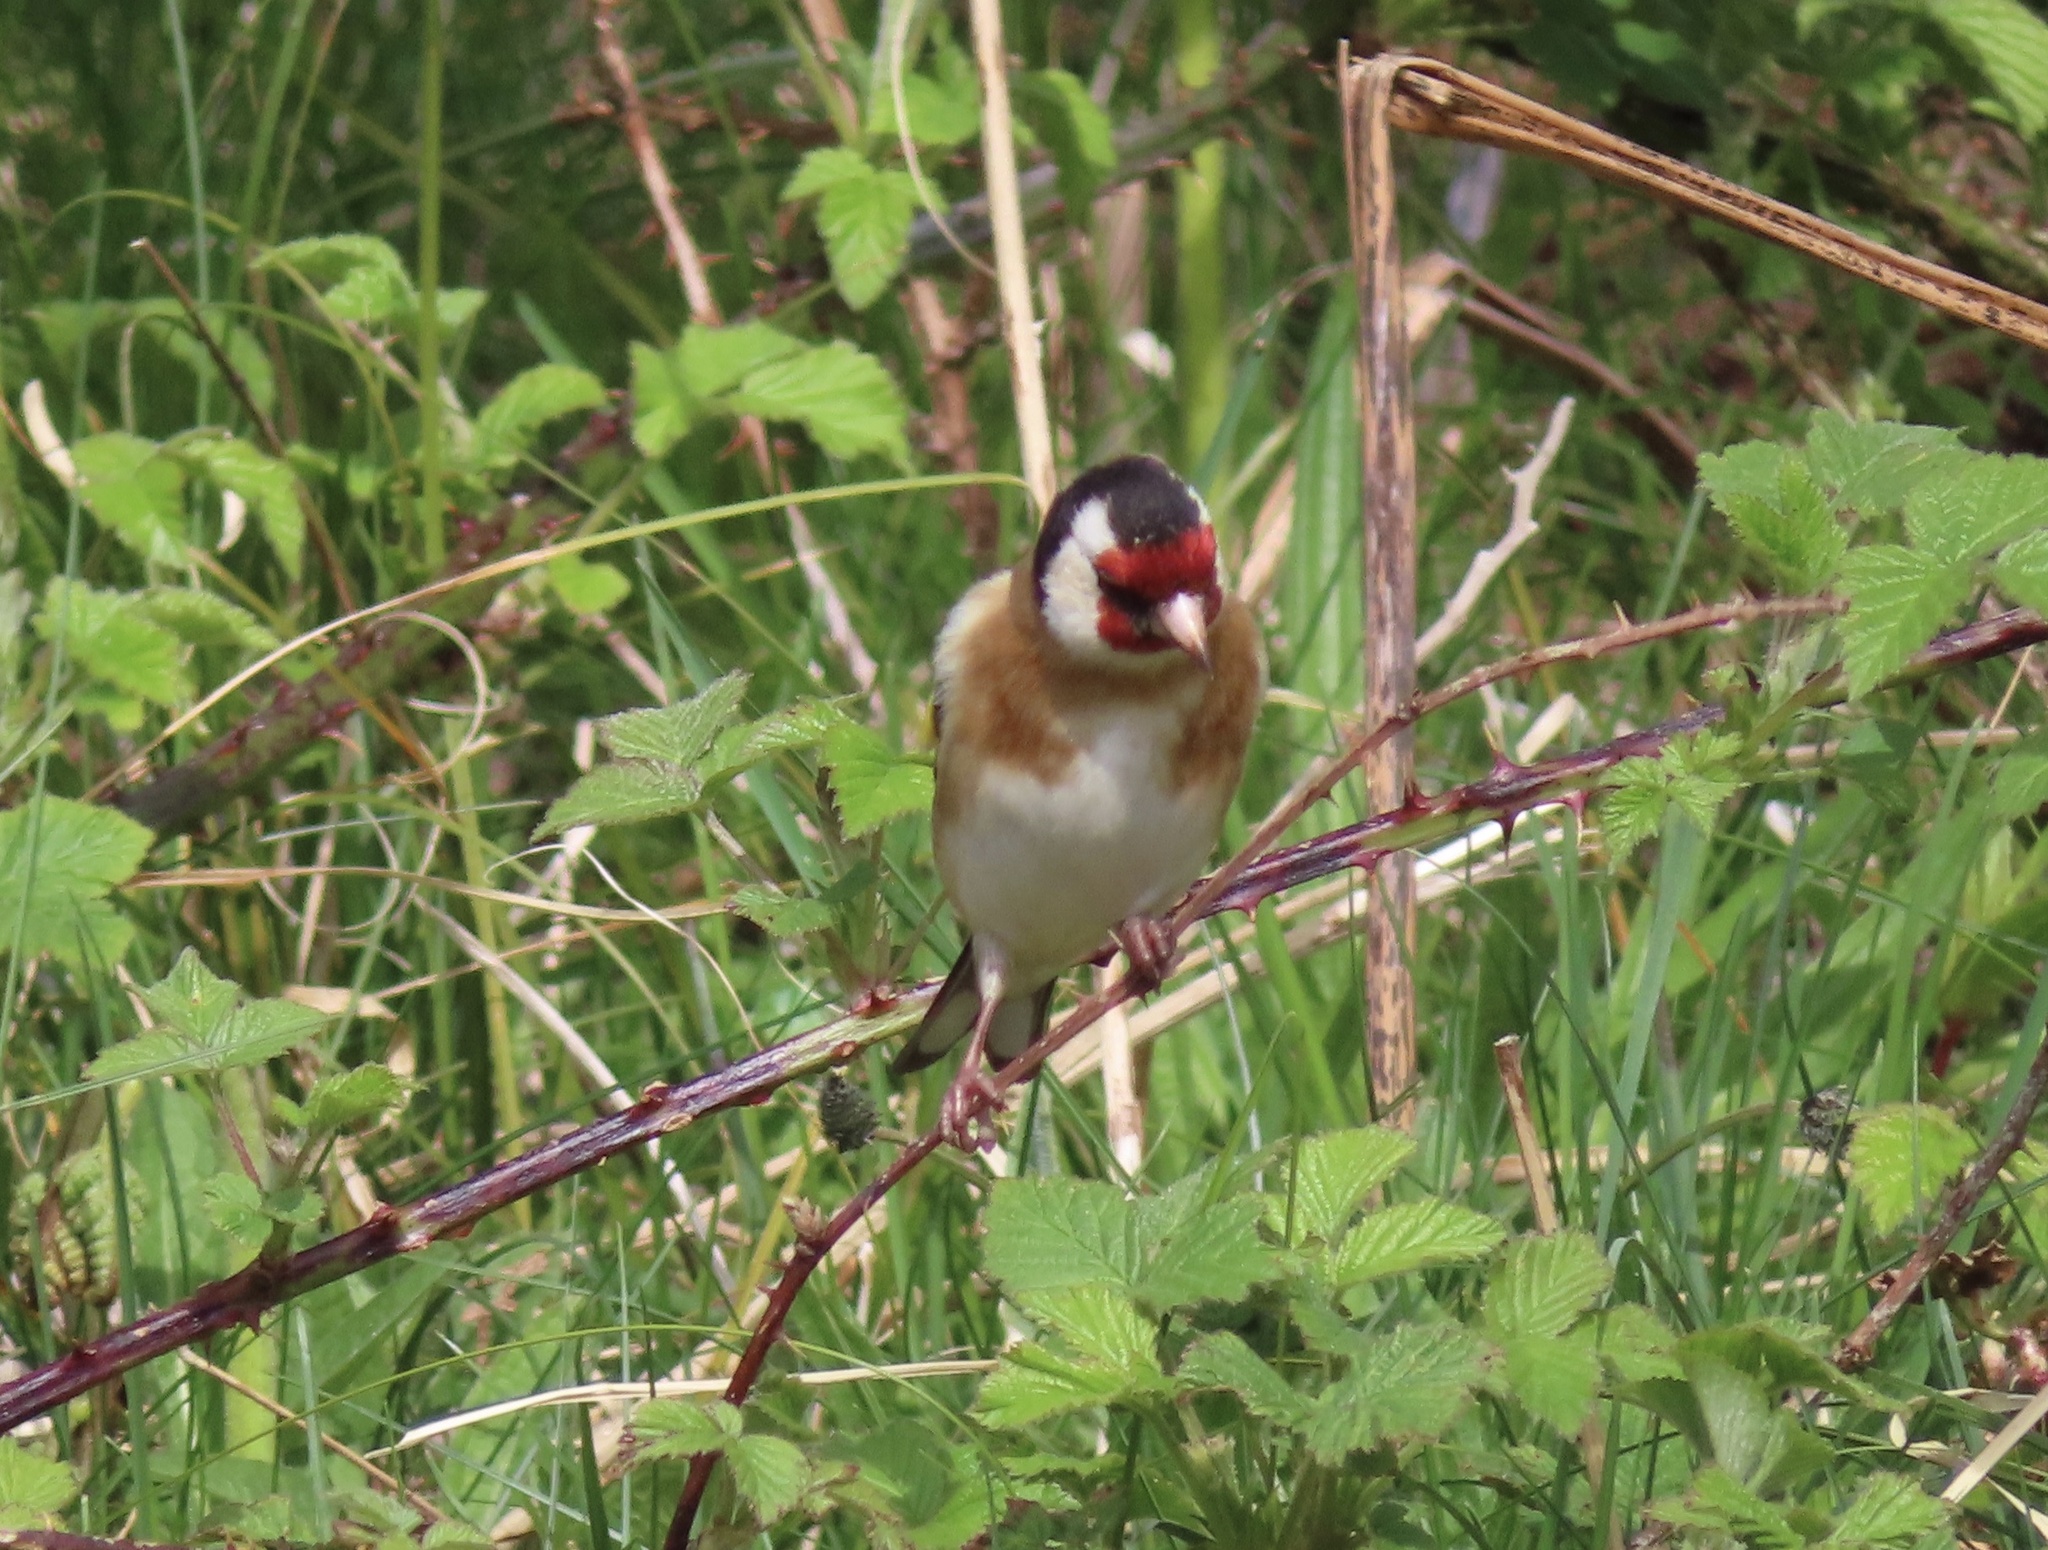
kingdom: Animalia
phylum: Chordata
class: Aves
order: Passeriformes
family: Fringillidae
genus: Carduelis
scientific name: Carduelis carduelis
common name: European goldfinch
